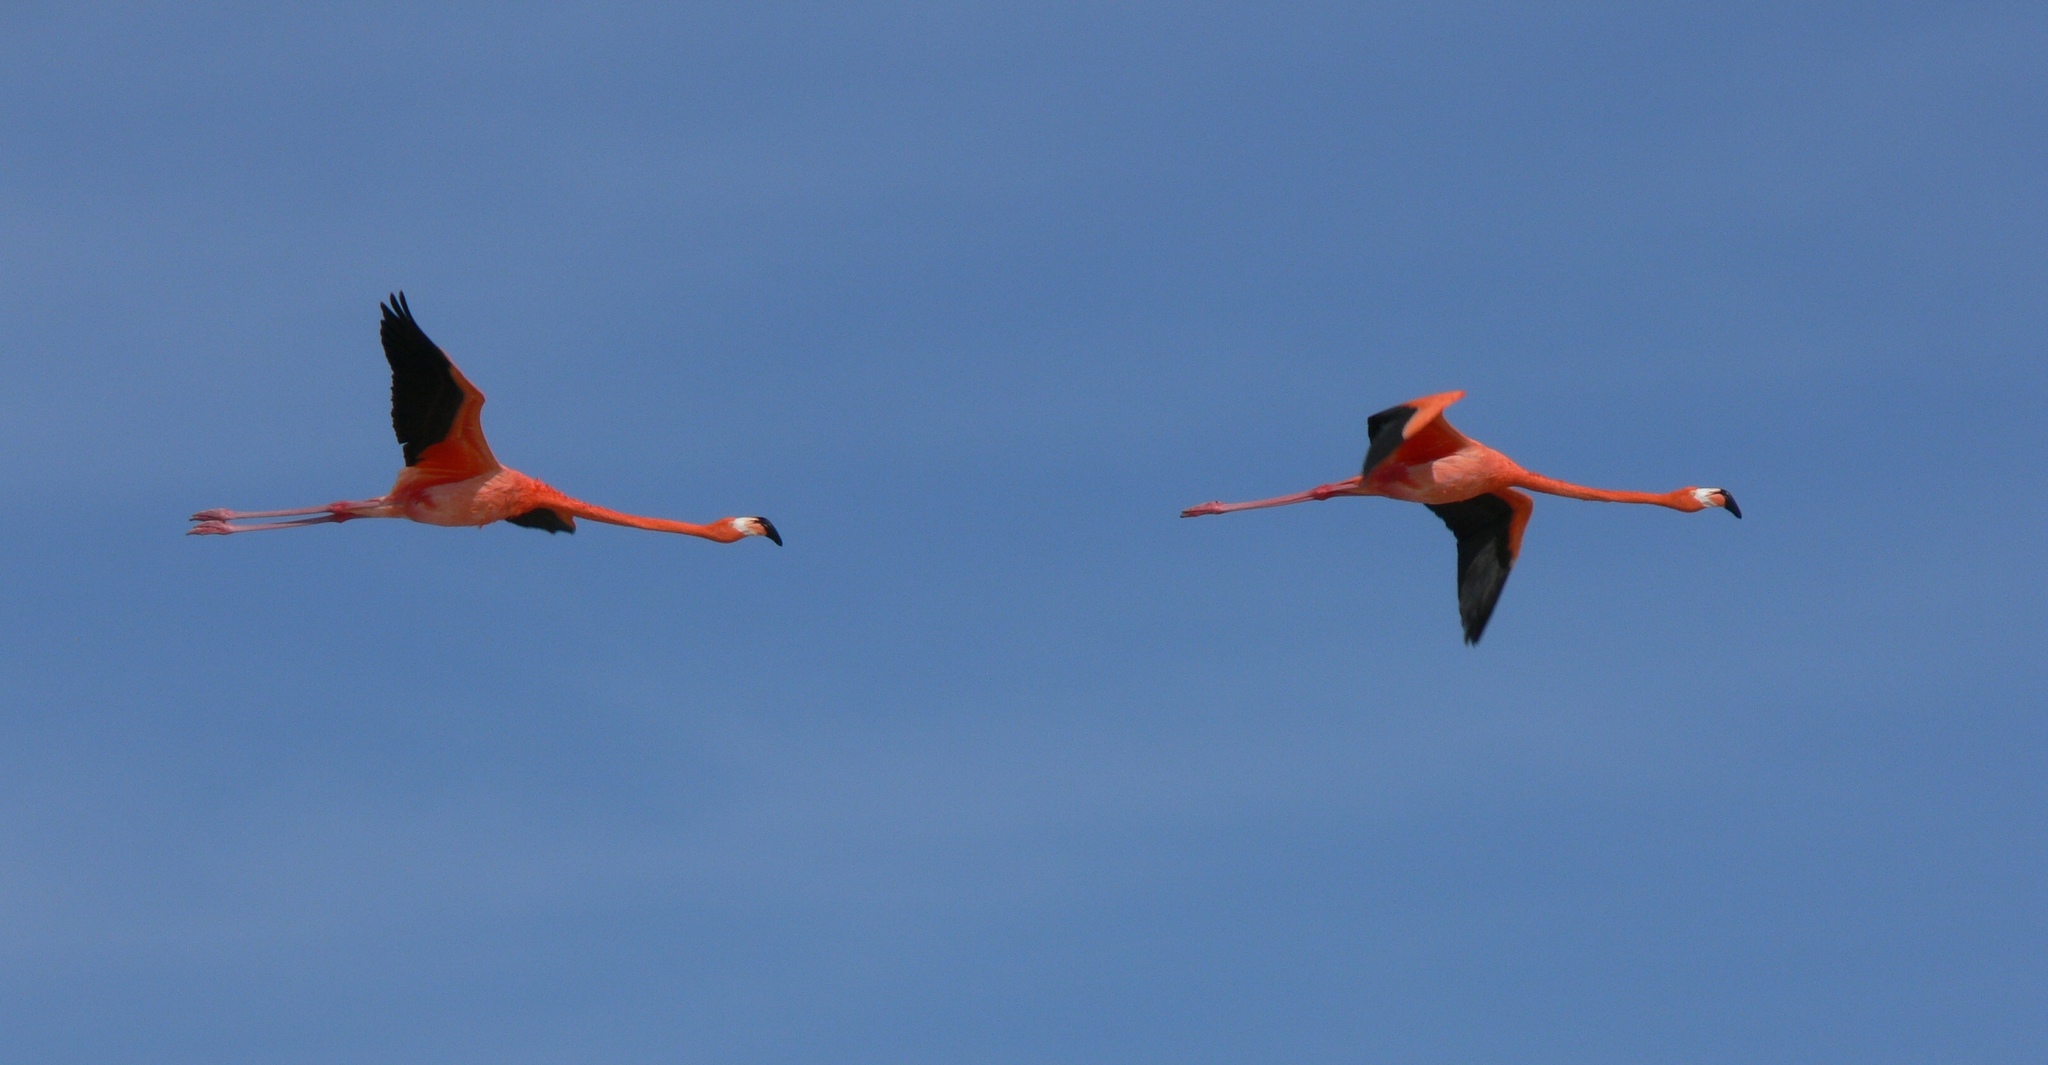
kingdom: Animalia
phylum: Chordata
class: Aves
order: Phoenicopteriformes
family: Phoenicopteridae
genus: Phoenicopterus
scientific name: Phoenicopterus ruber
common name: American flamingo
